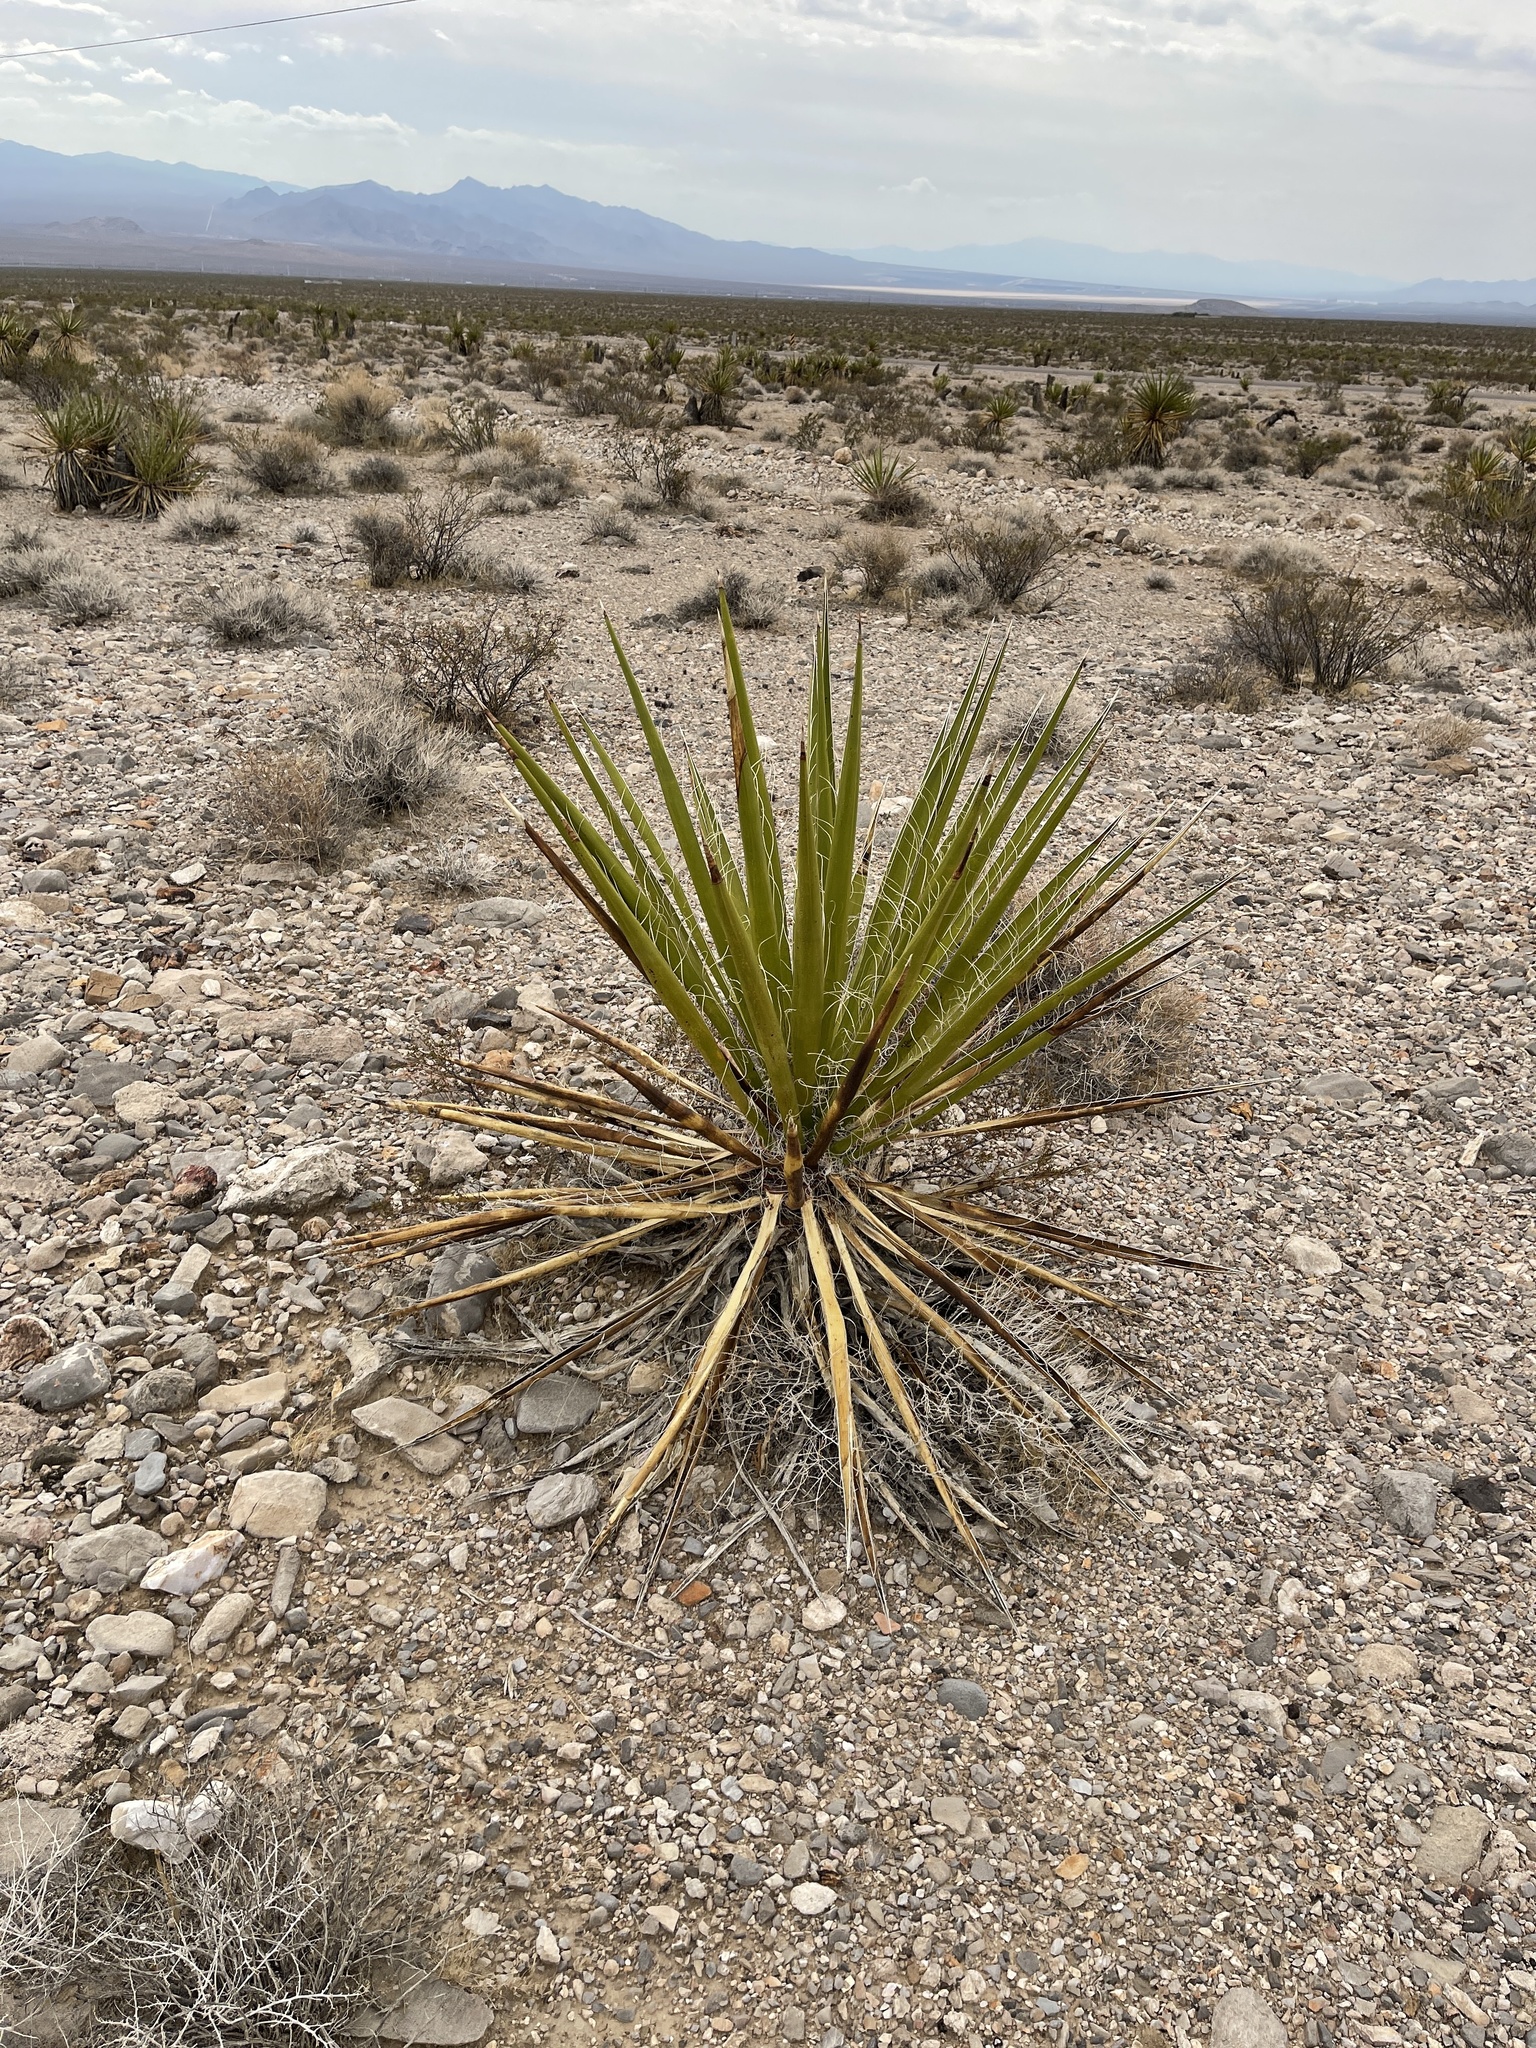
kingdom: Plantae
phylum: Tracheophyta
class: Liliopsida
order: Asparagales
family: Asparagaceae
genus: Yucca
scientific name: Yucca schidigera
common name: Mojave yucca
